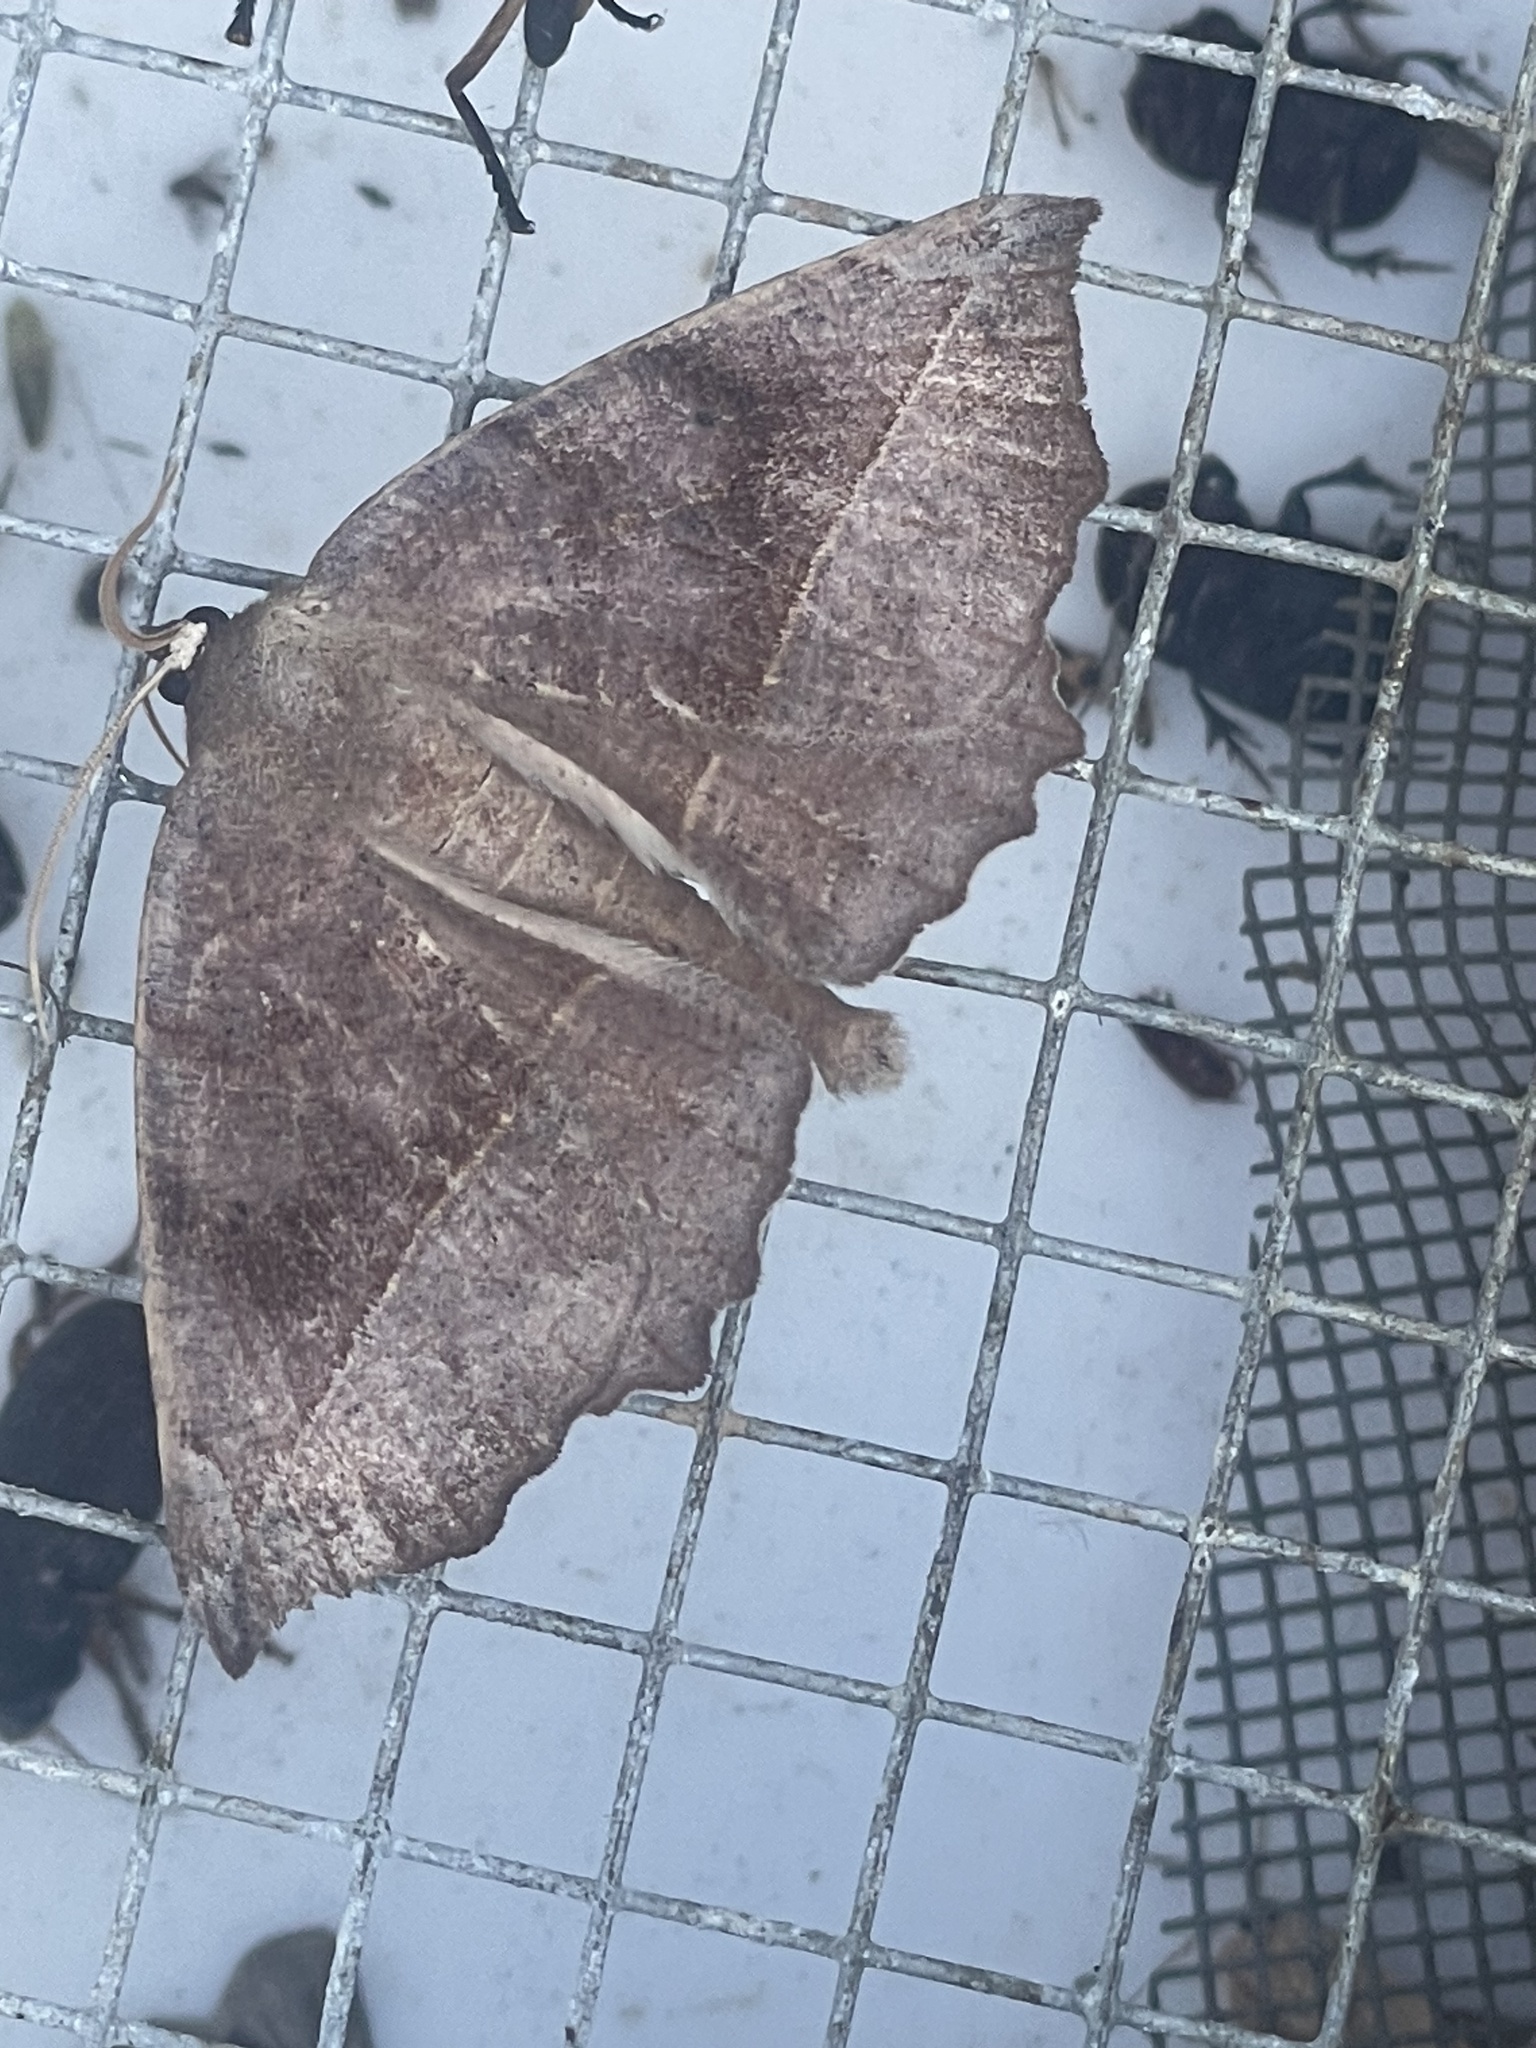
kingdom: Animalia
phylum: Arthropoda
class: Insecta
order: Lepidoptera
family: Geometridae
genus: Eutrapela
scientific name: Eutrapela clemataria
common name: Curved-toothed geometer
